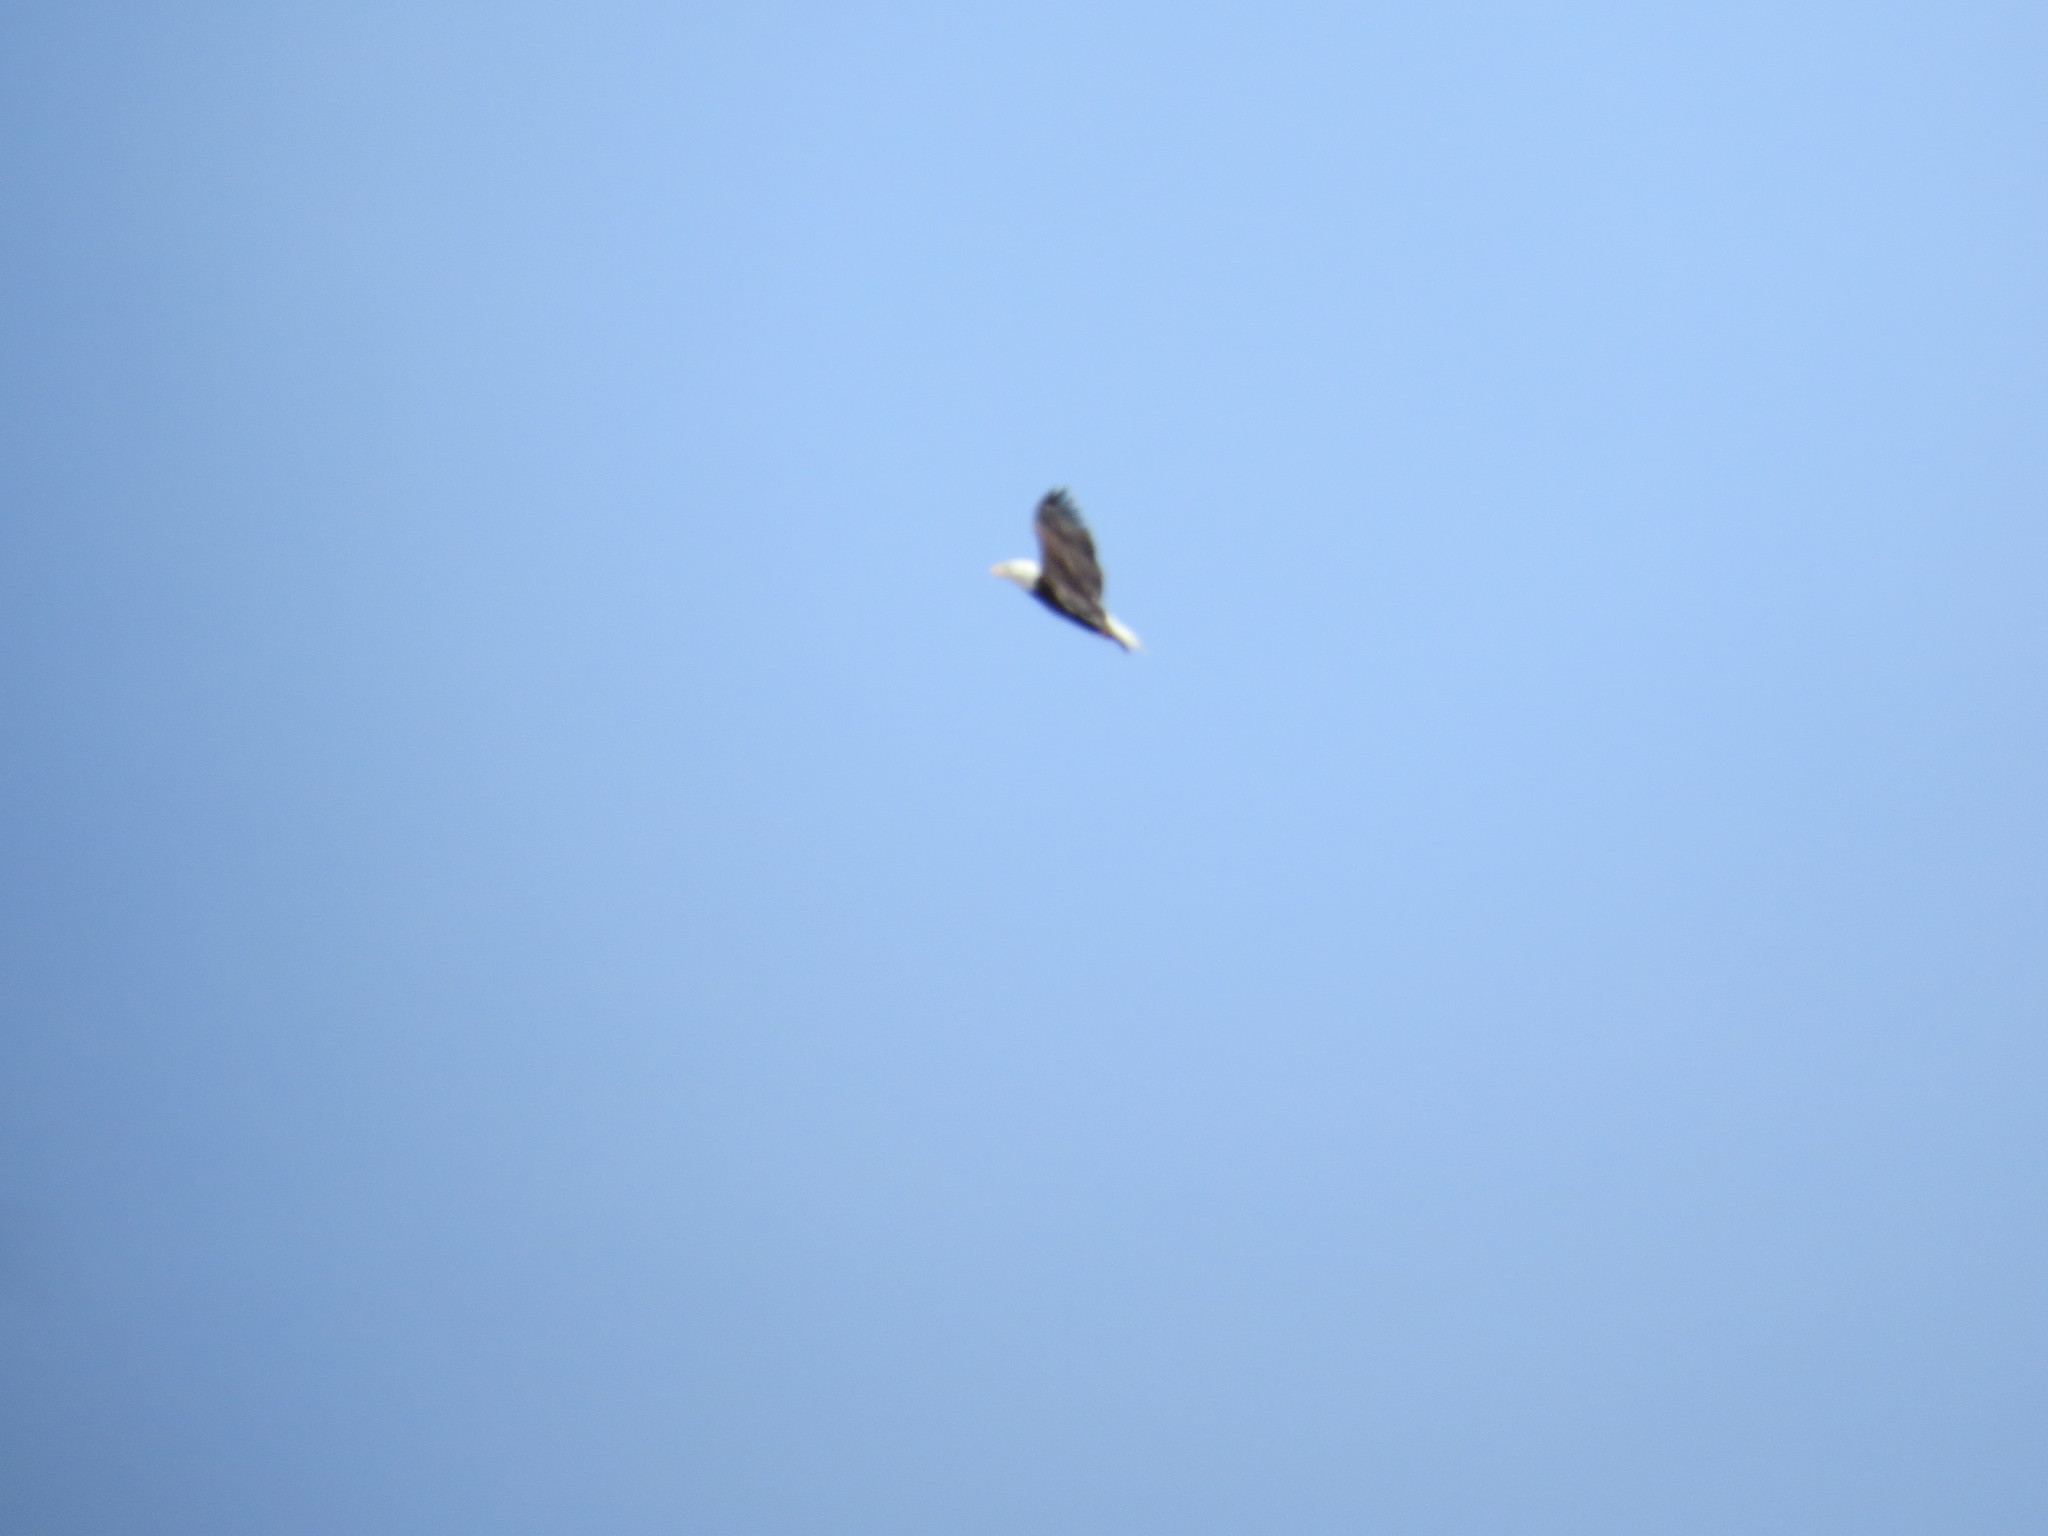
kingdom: Animalia
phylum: Chordata
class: Aves
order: Accipitriformes
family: Accipitridae
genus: Haliaeetus
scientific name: Haliaeetus leucocephalus
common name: Bald eagle
